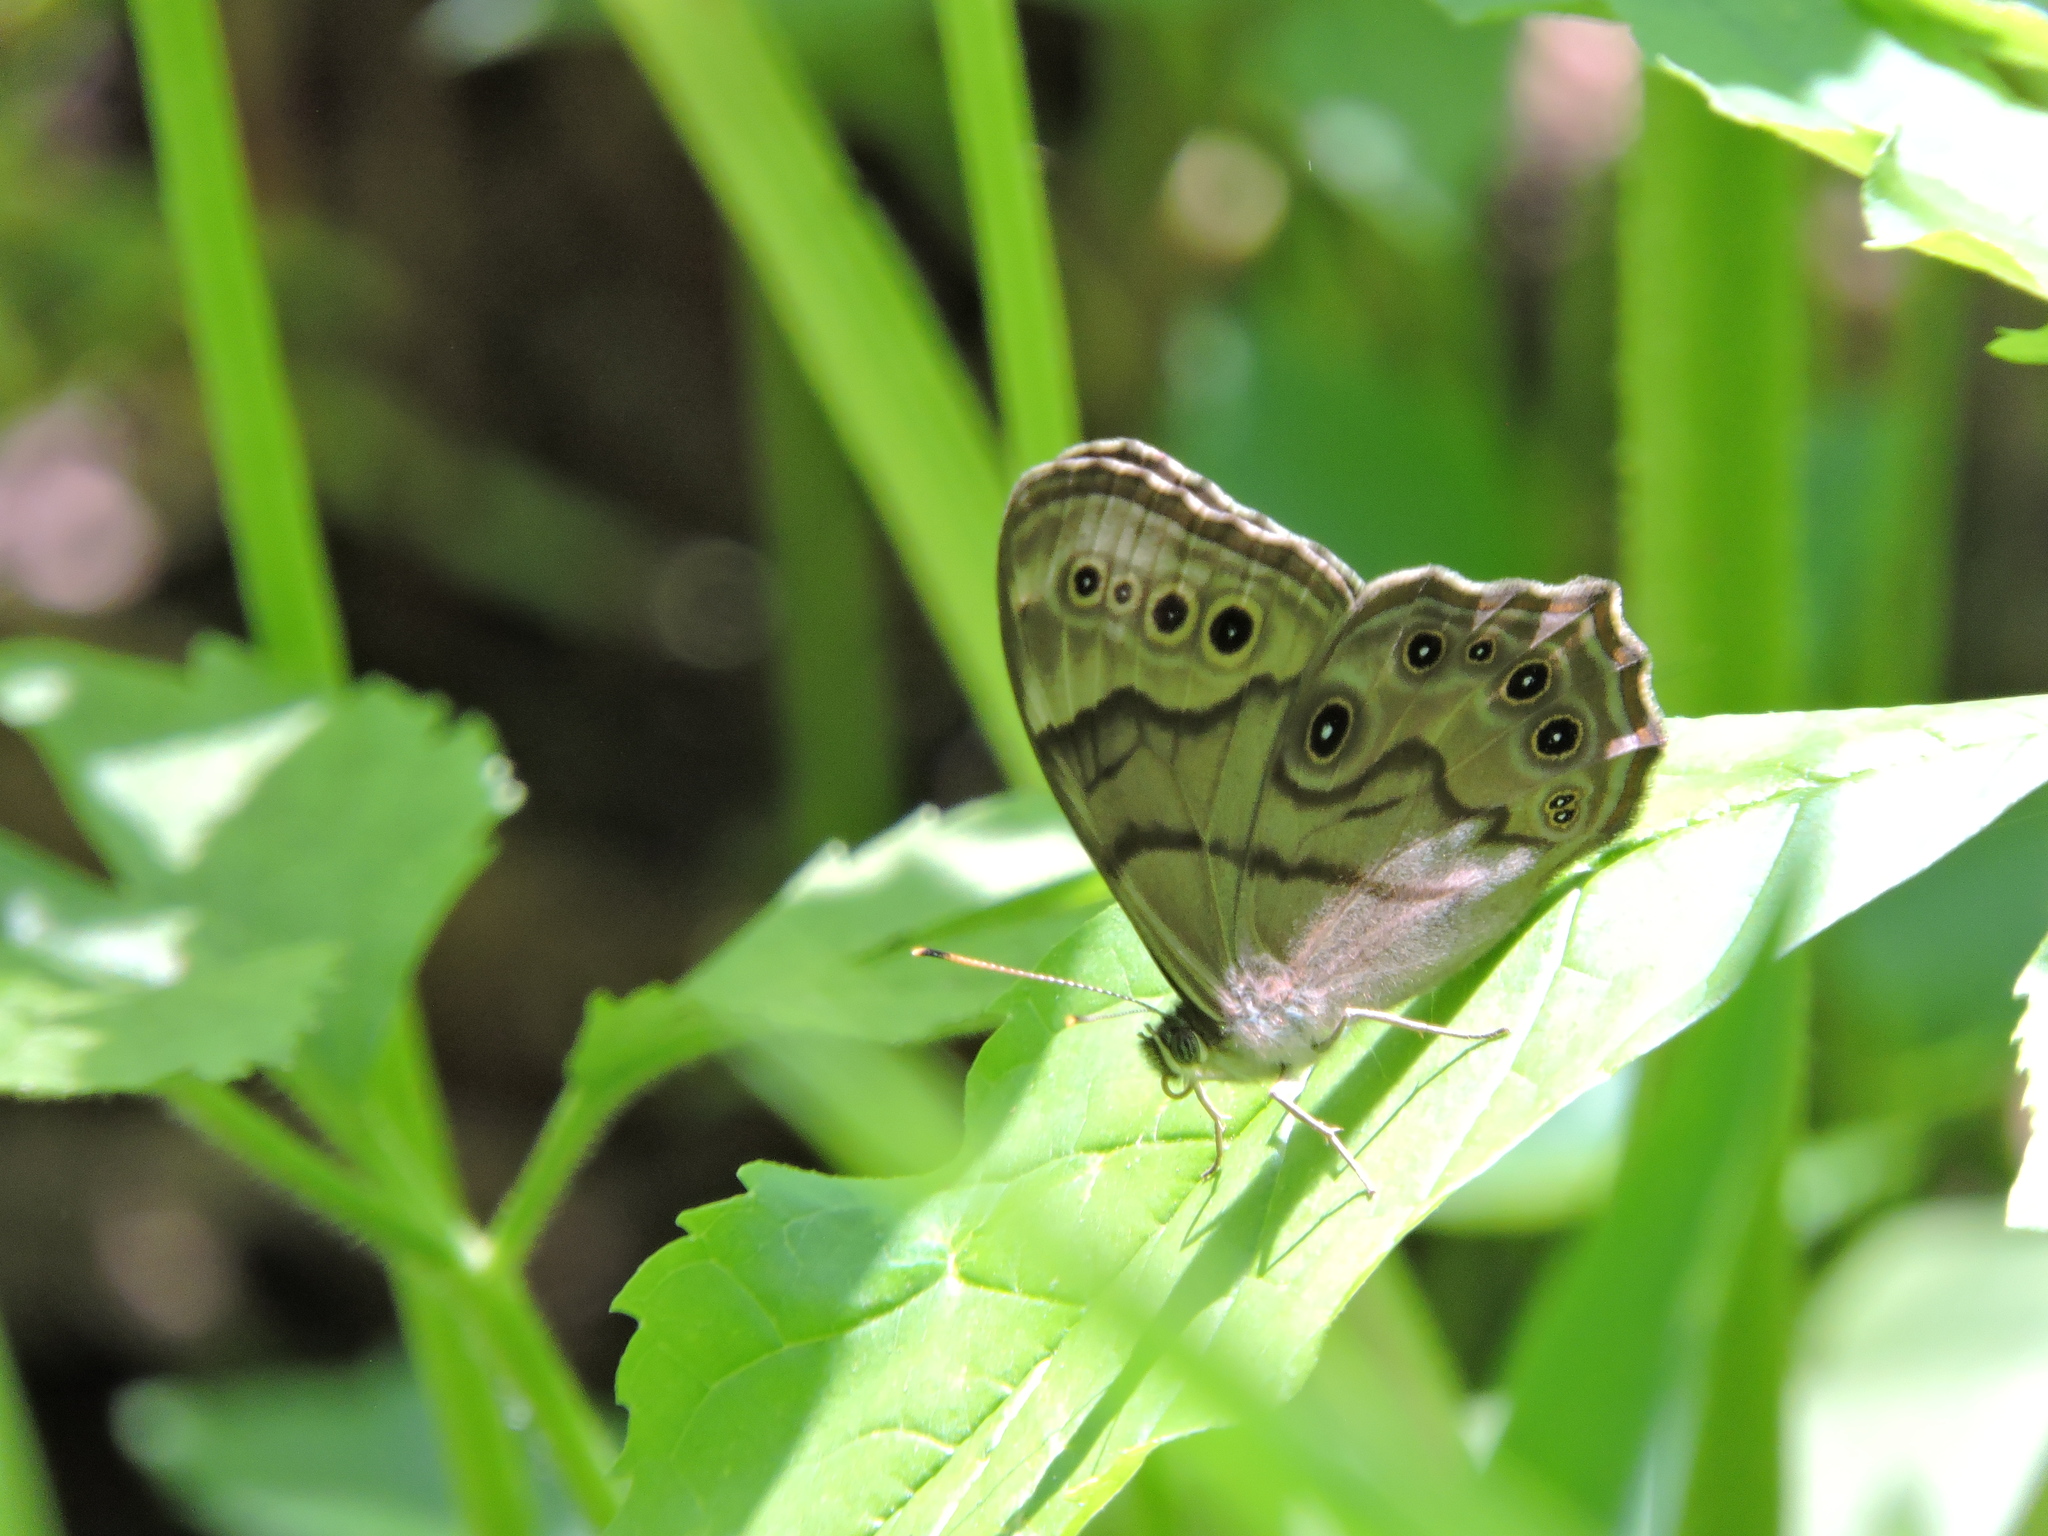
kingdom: Animalia
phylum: Arthropoda
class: Insecta
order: Lepidoptera
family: Nymphalidae
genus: Lethe
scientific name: Lethe anthedon
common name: Northern pearly-eye
